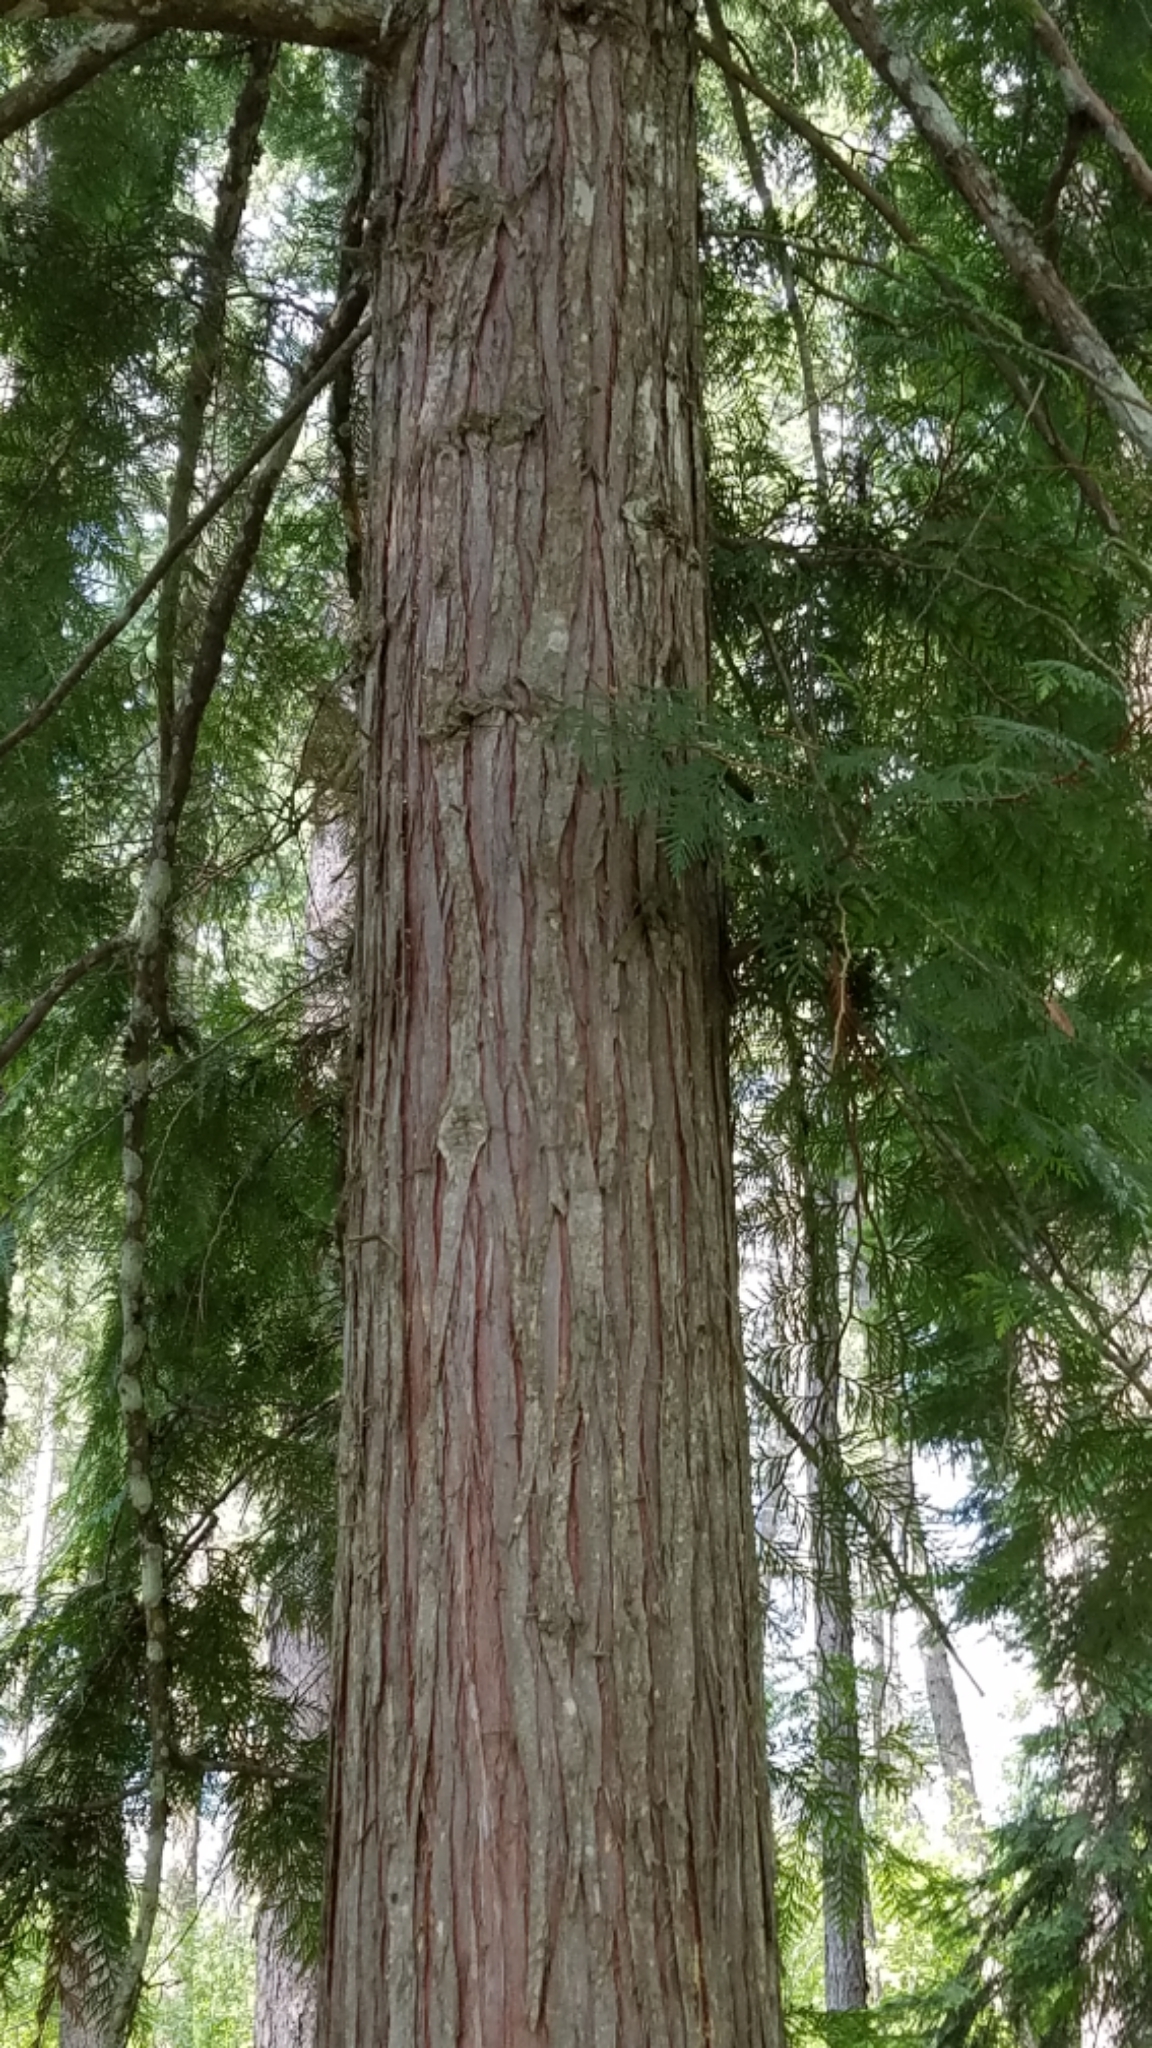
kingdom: Plantae
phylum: Tracheophyta
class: Pinopsida
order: Pinales
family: Cupressaceae
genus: Thuja
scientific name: Thuja plicata
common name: Western red-cedar
